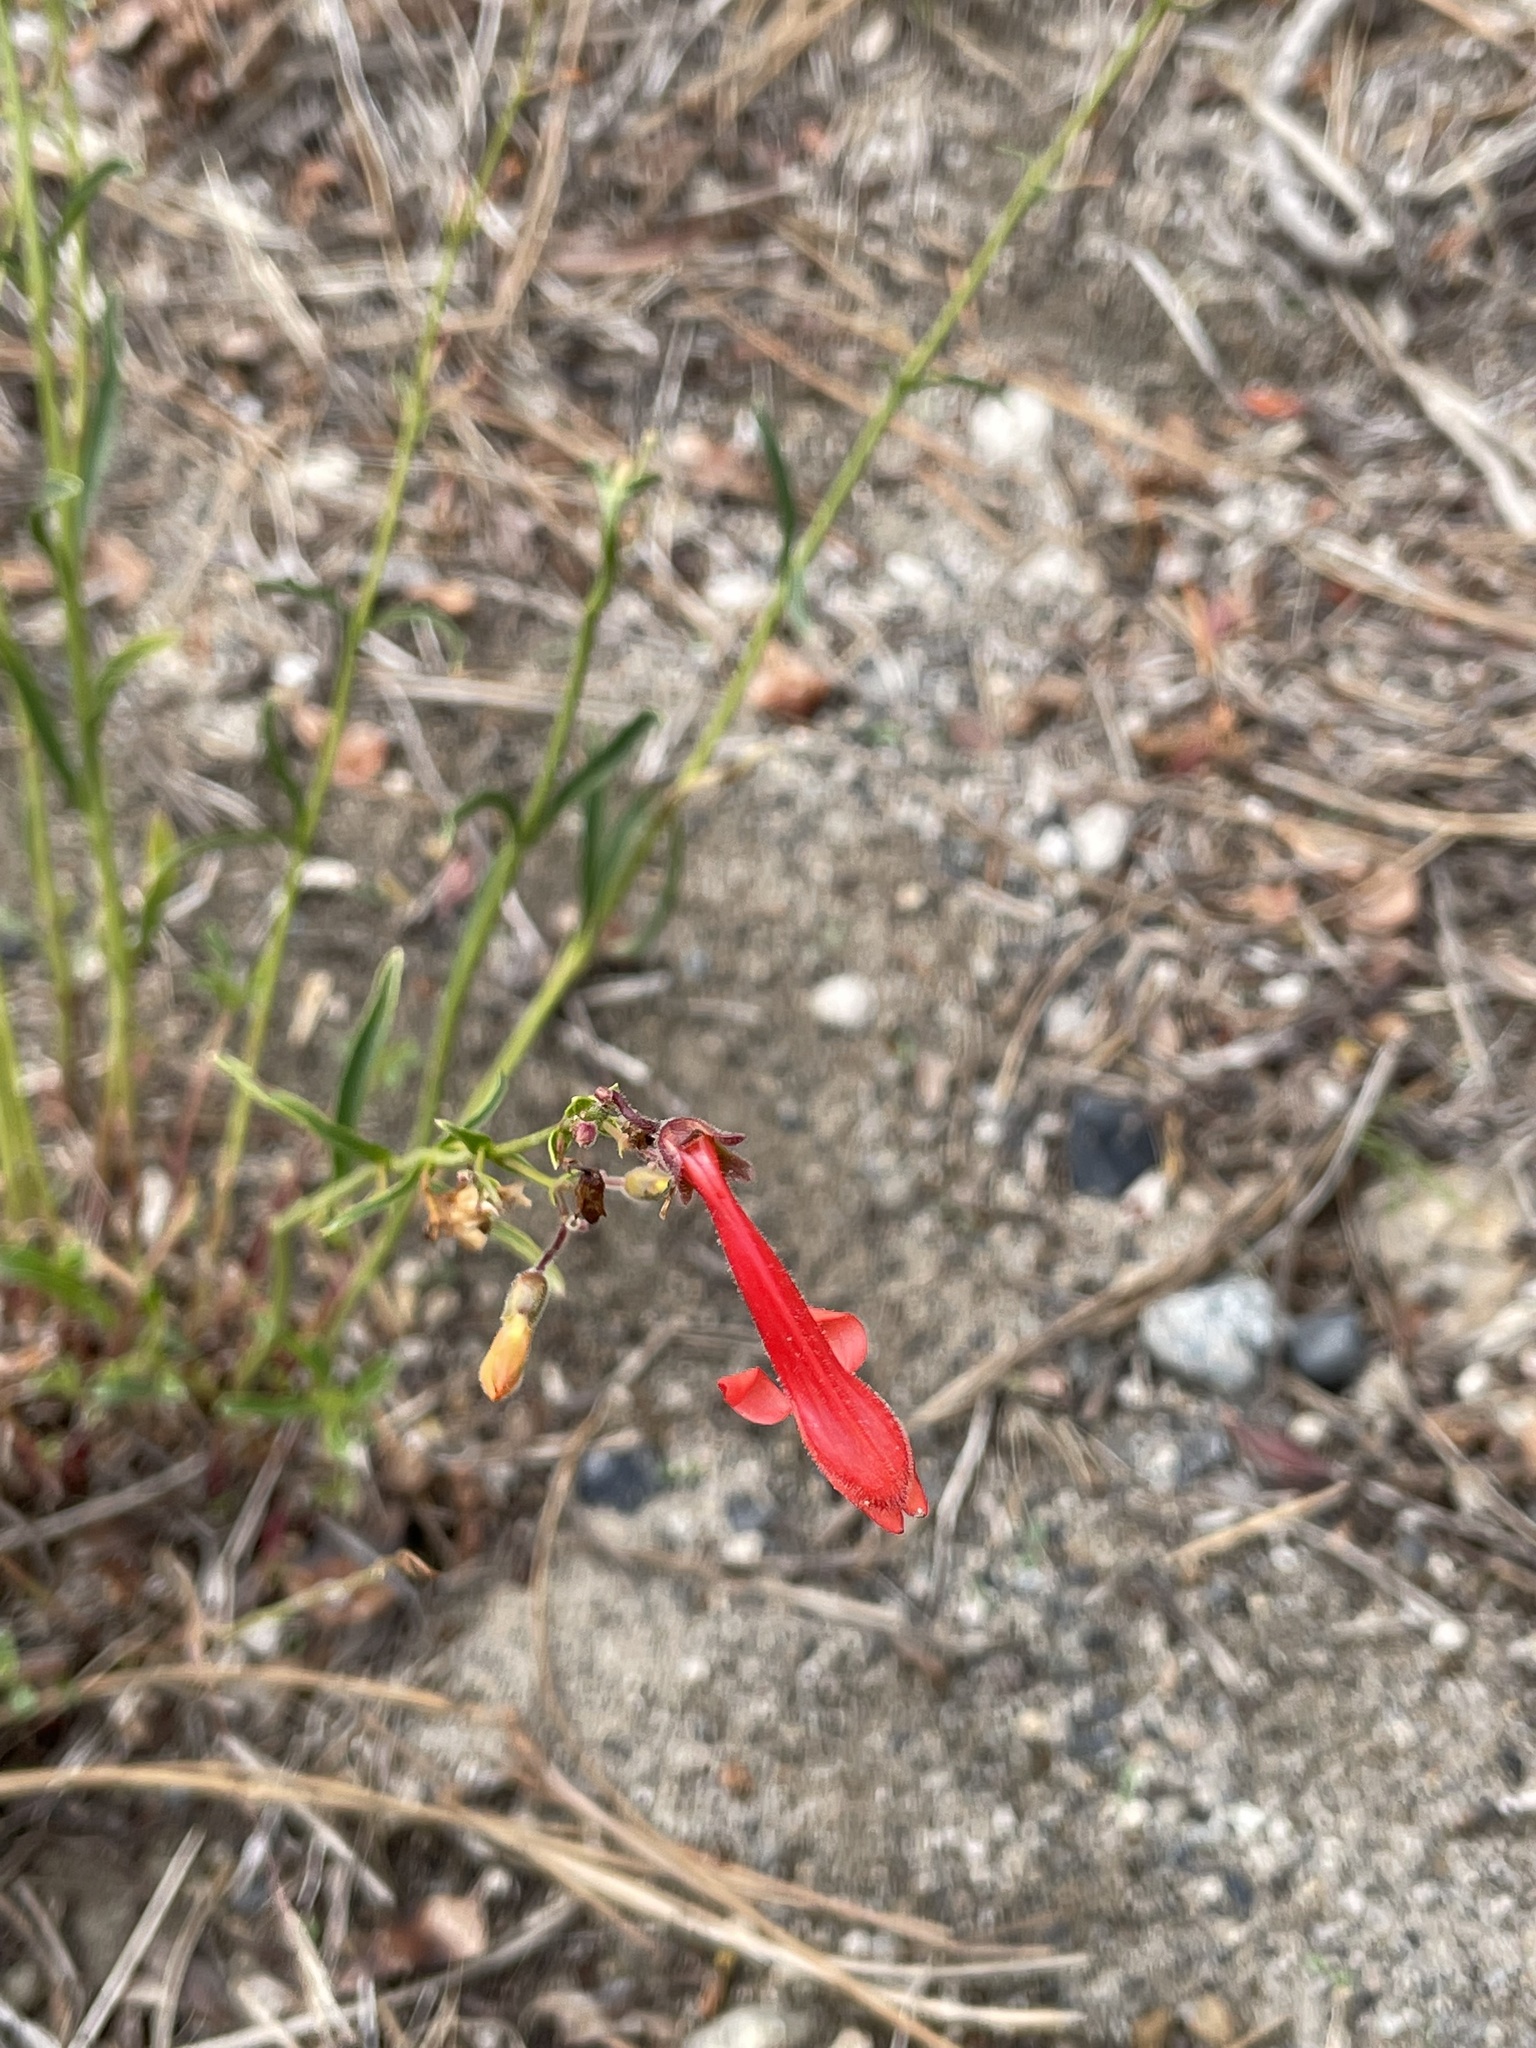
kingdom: Plantae
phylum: Tracheophyta
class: Magnoliopsida
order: Lamiales
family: Plantaginaceae
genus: Penstemon
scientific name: Penstemon rostriflorus
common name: Bridges's penstemon
